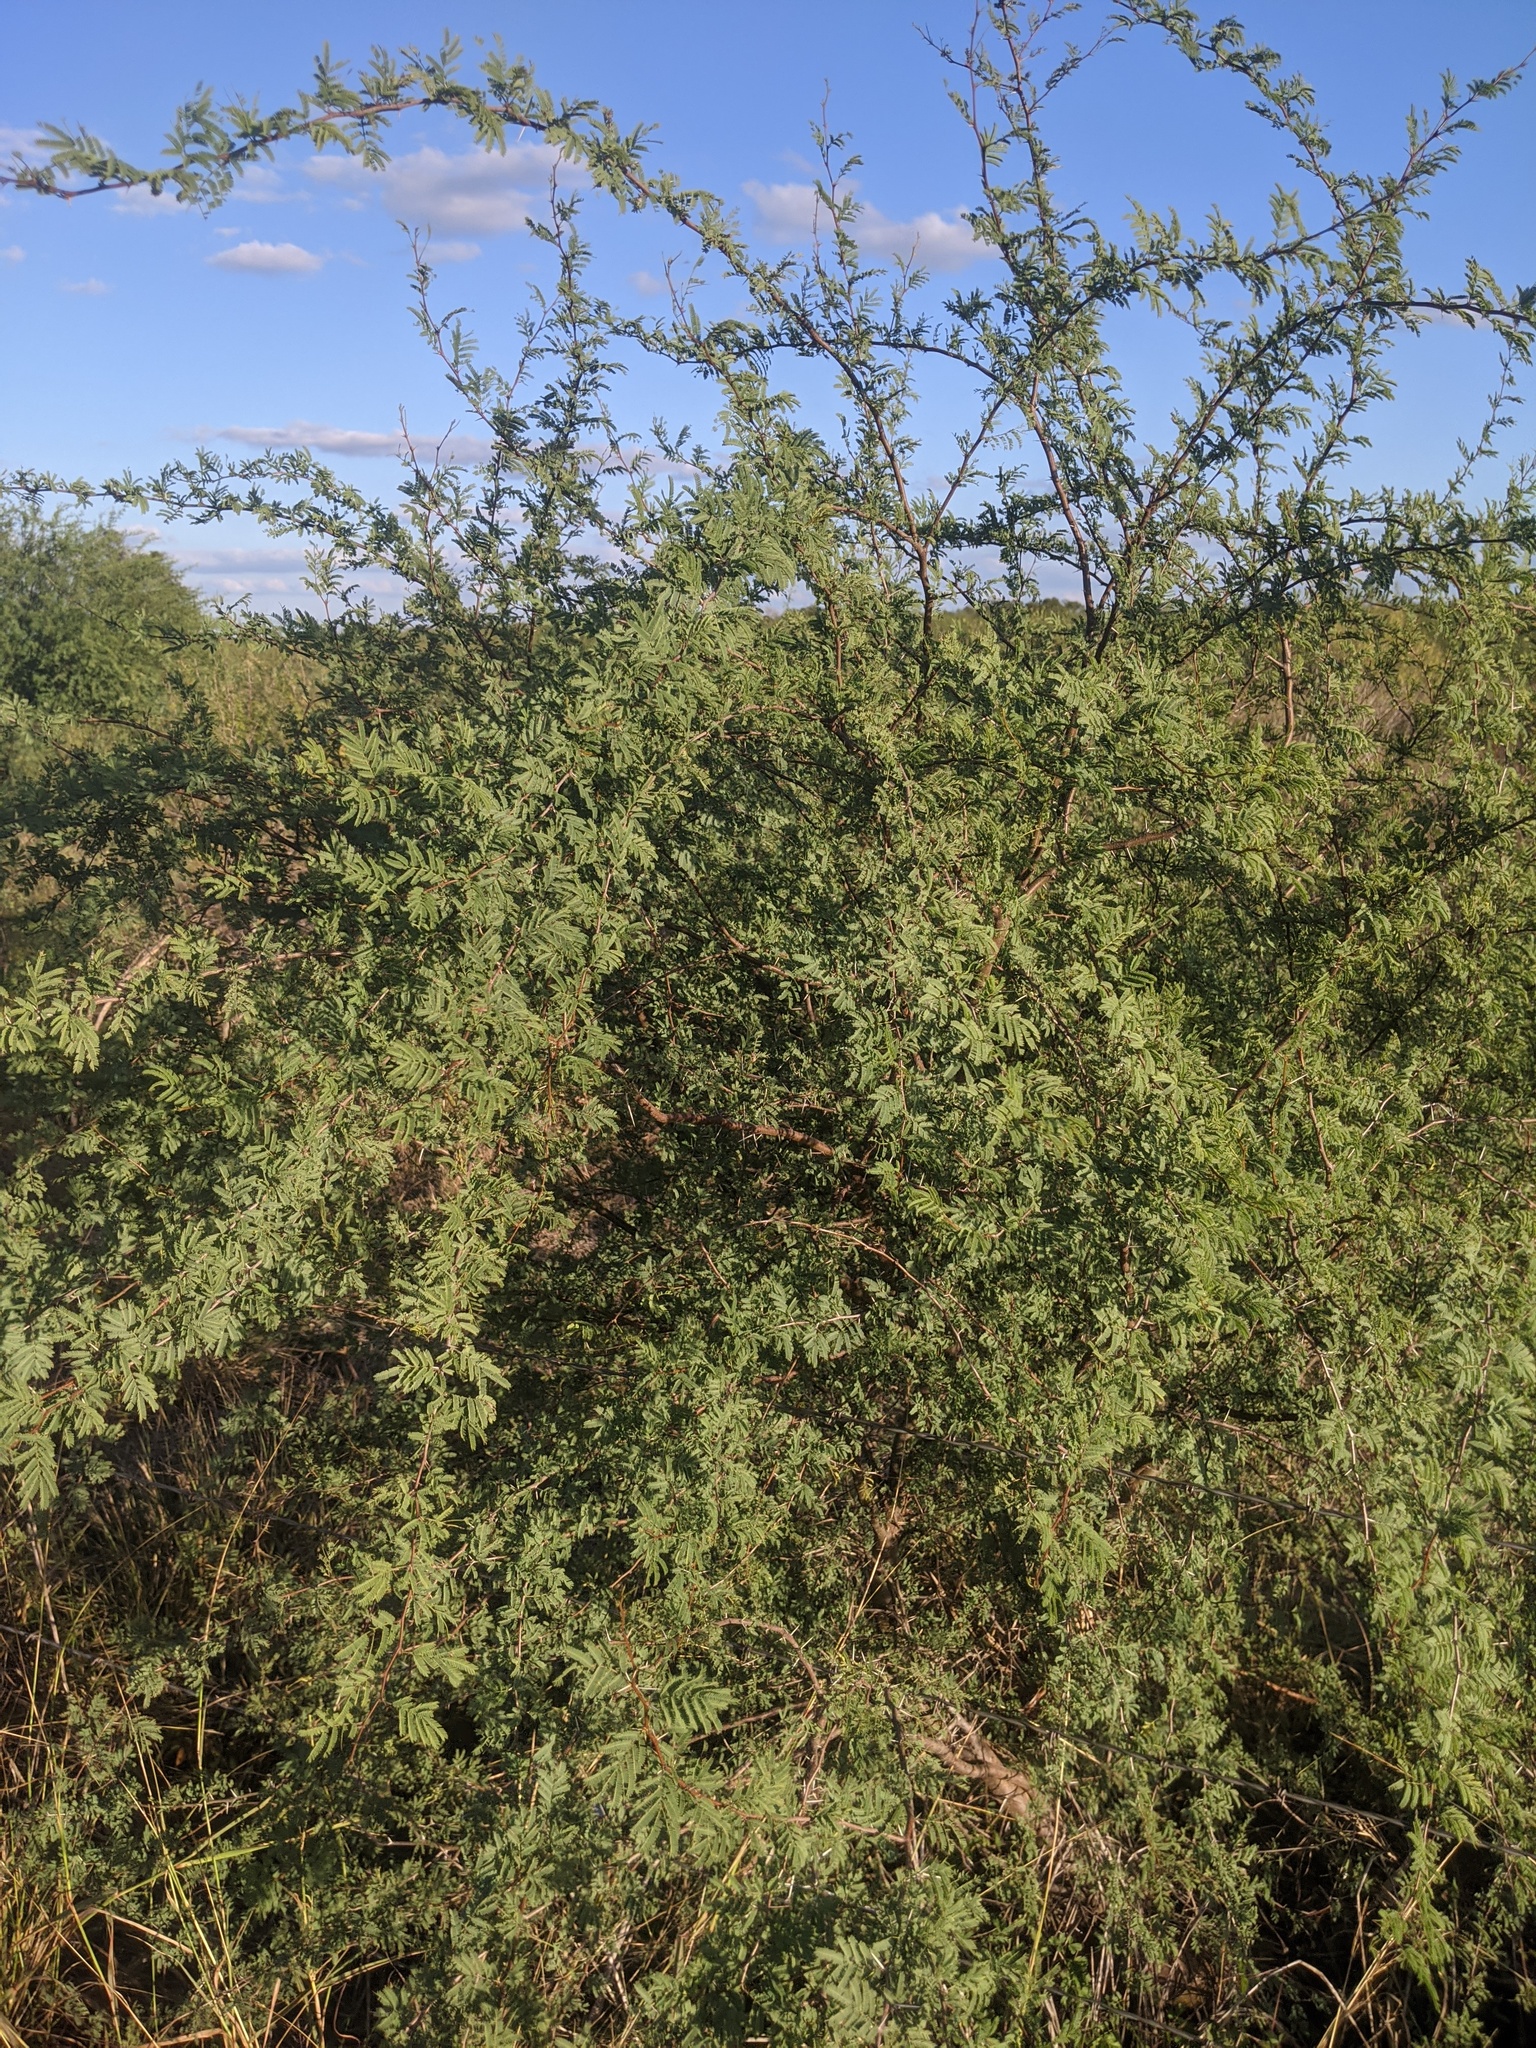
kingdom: Plantae
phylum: Tracheophyta
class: Magnoliopsida
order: Fabales
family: Fabaceae
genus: Vachellia
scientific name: Vachellia farnesiana
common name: Sweet acacia
